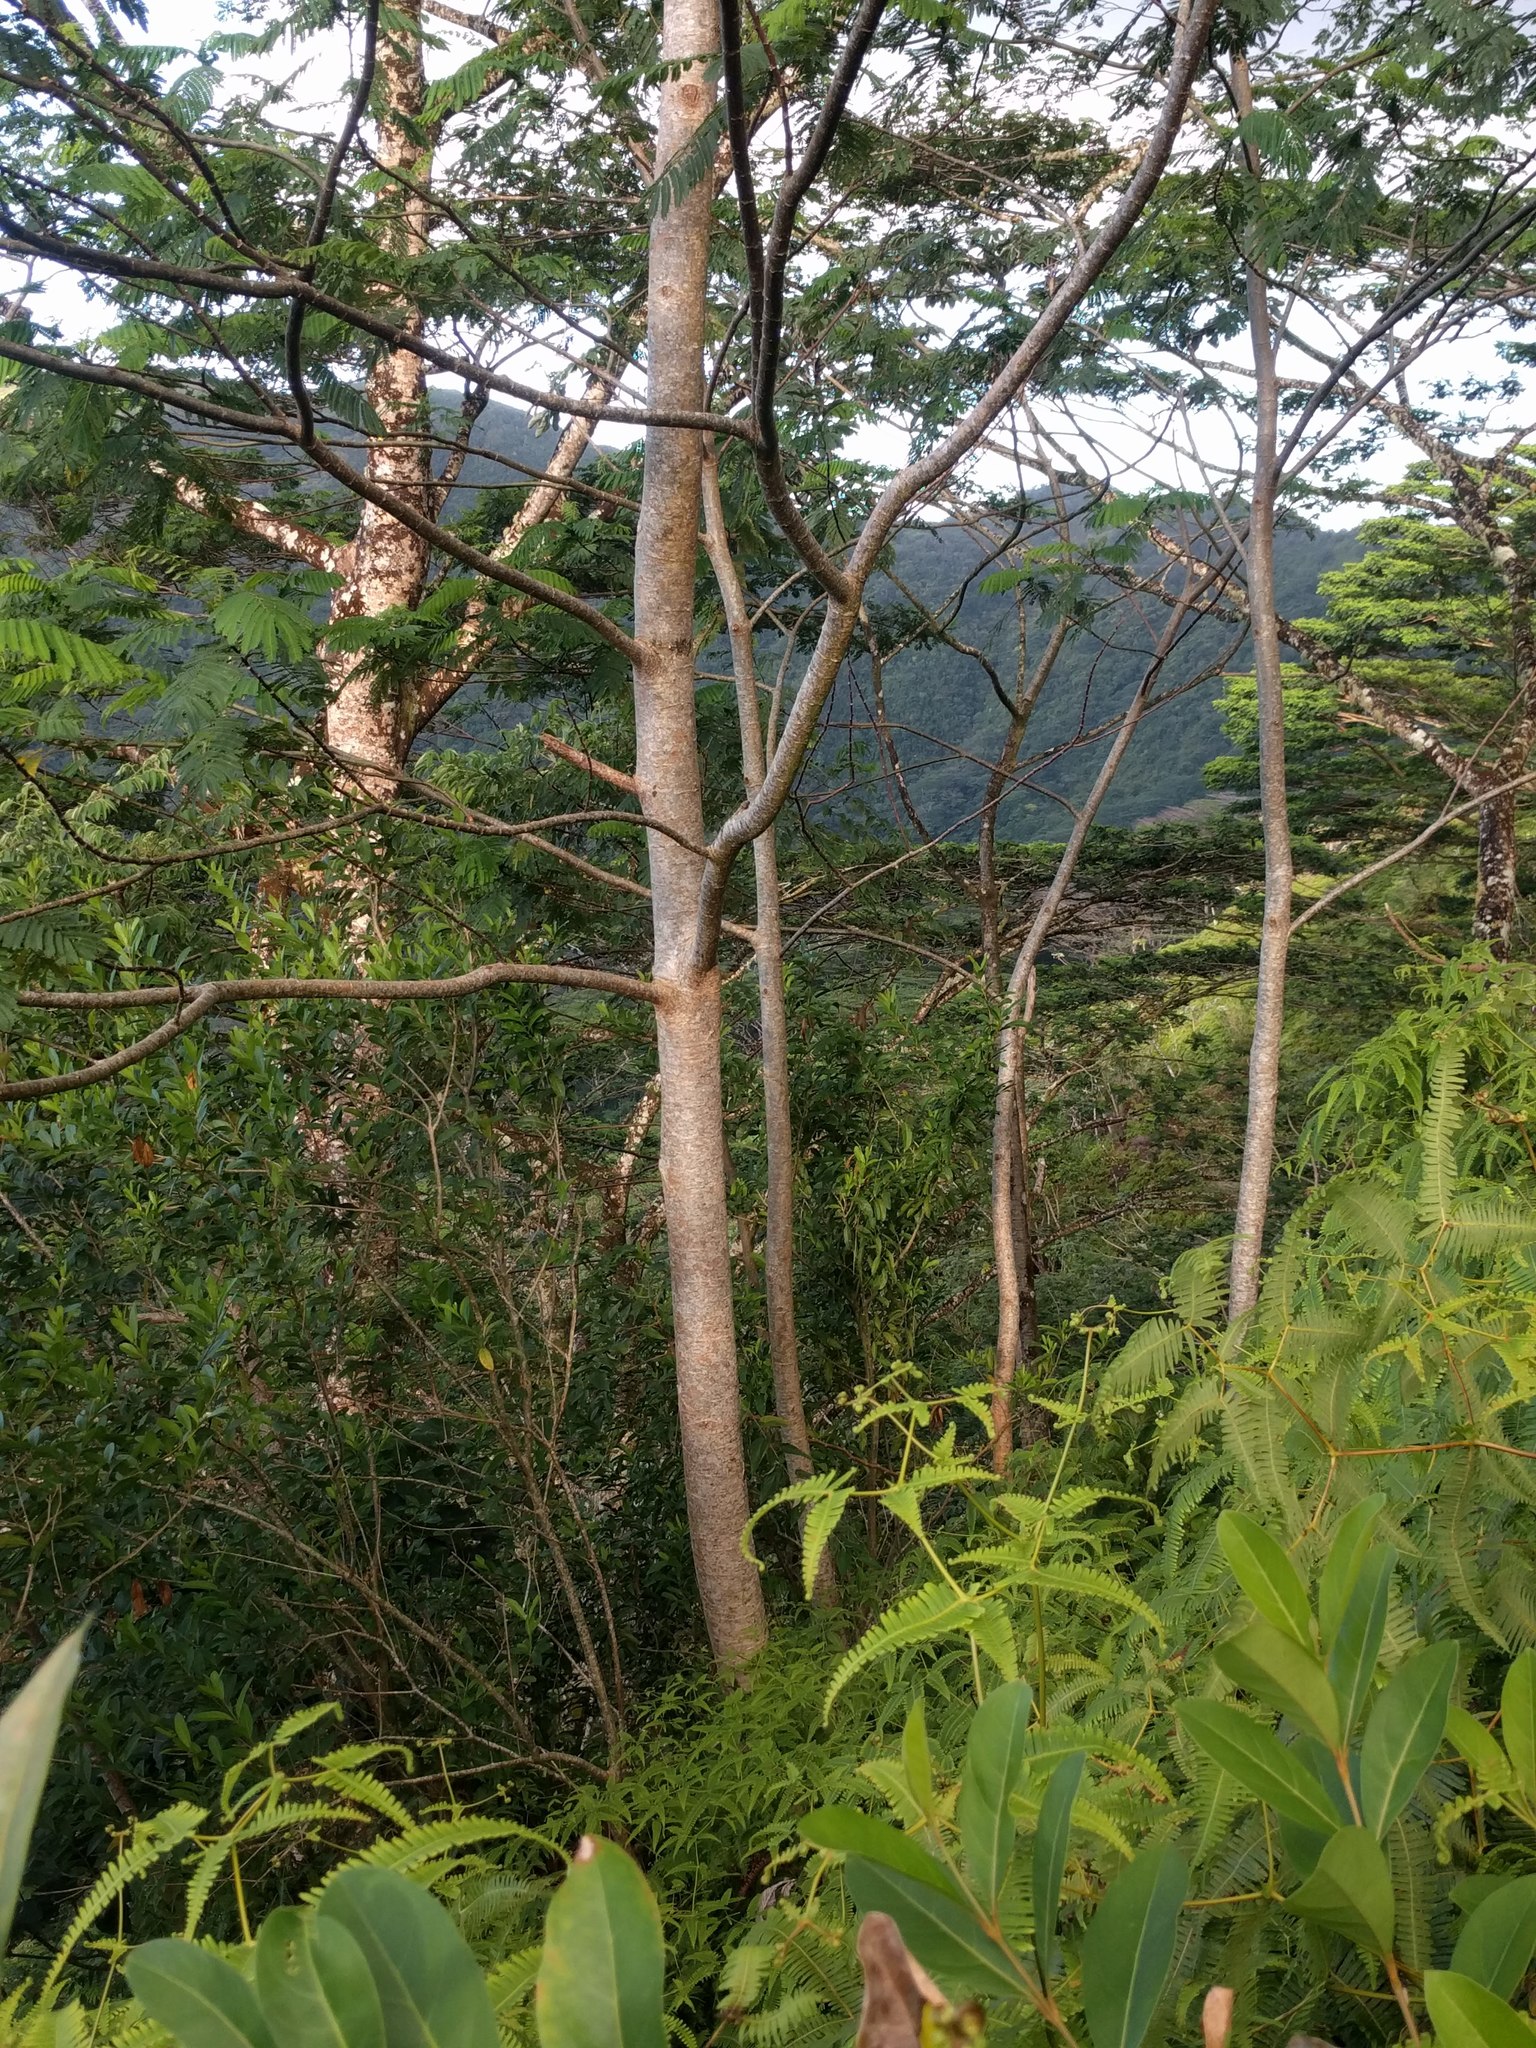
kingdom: Plantae
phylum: Tracheophyta
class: Magnoliopsida
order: Fabales
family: Fabaceae
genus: Falcataria
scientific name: Falcataria falcata
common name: Moluccan albizia
